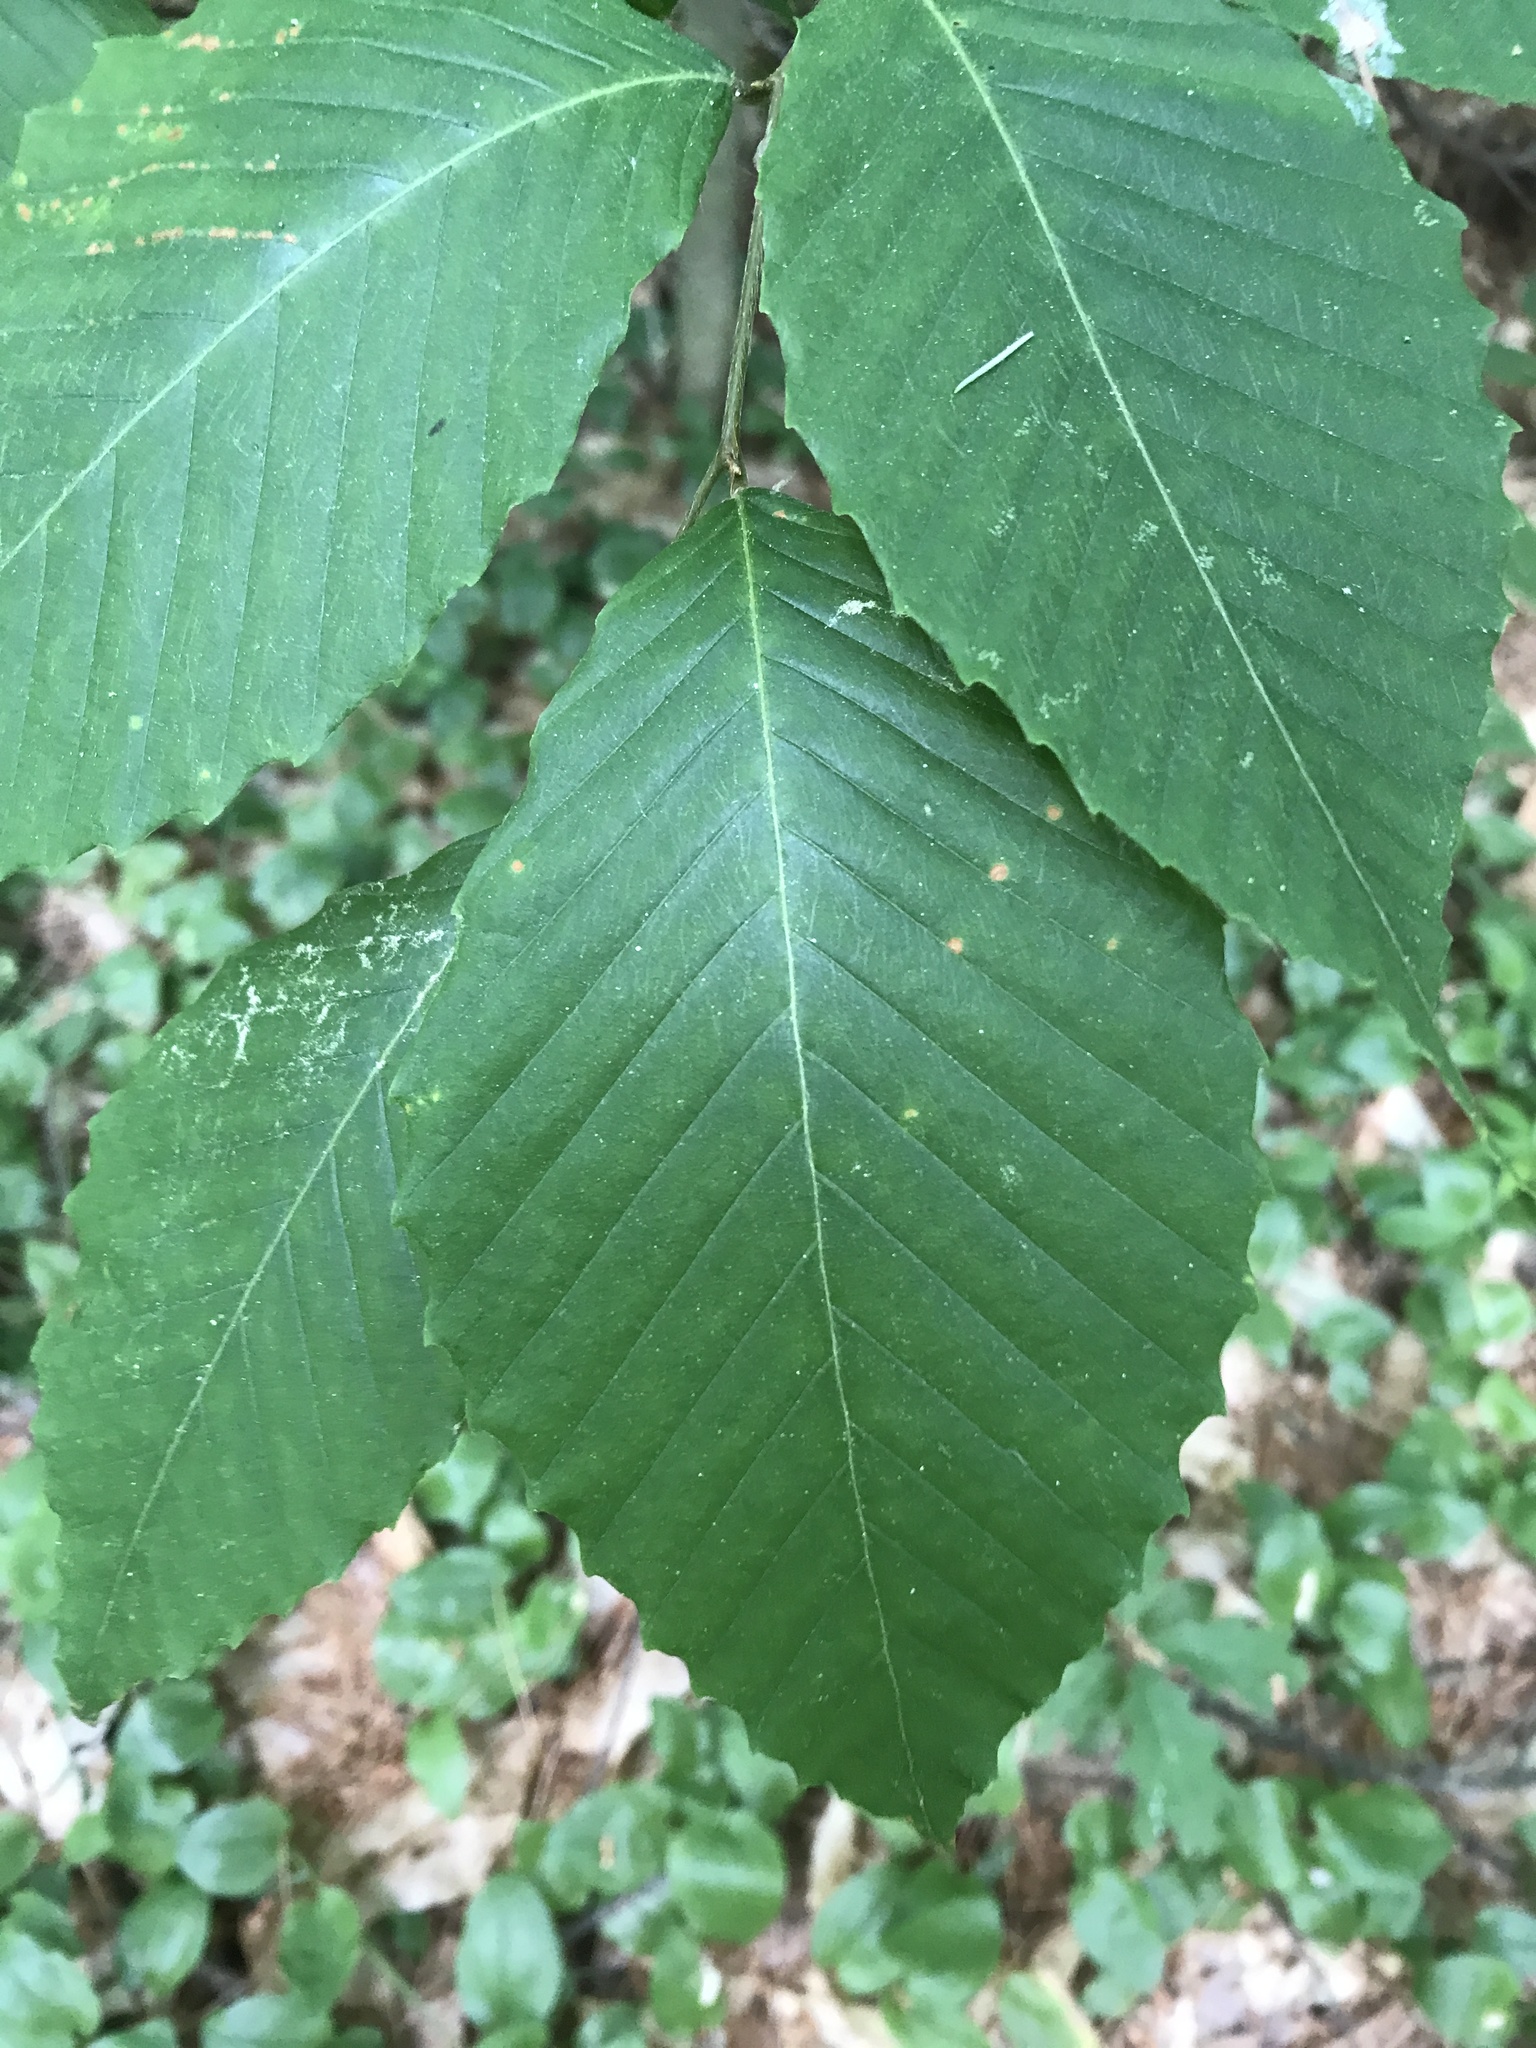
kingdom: Plantae
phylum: Tracheophyta
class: Magnoliopsida
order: Fagales
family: Fagaceae
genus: Fagus
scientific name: Fagus grandifolia
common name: American beech
